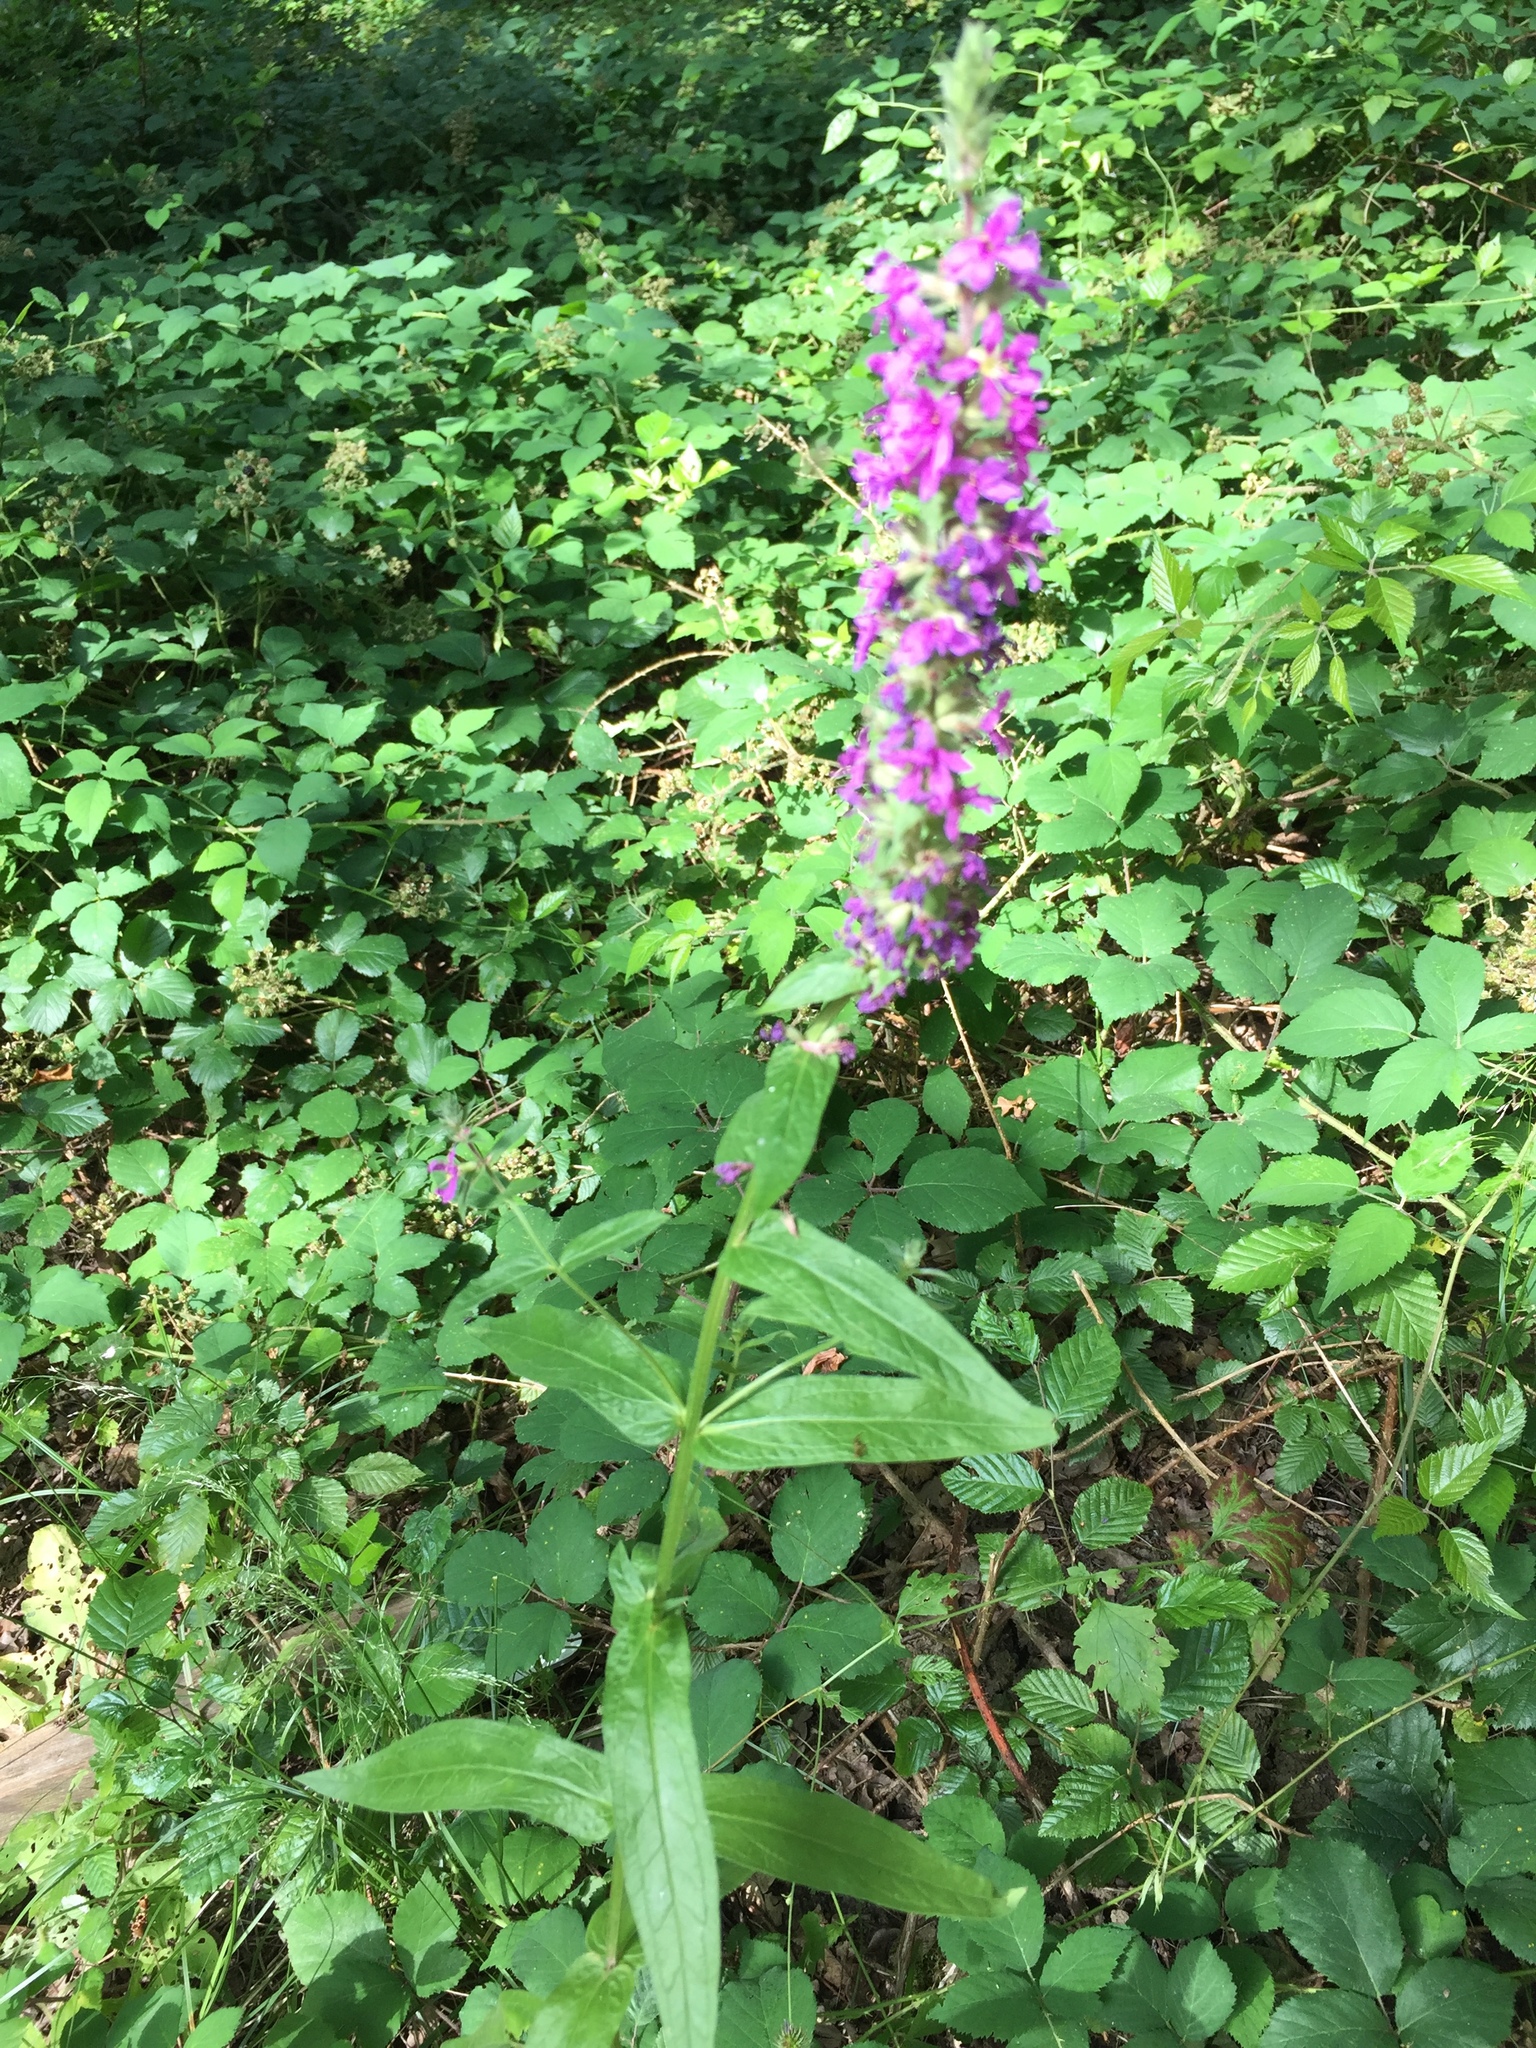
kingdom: Plantae
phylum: Tracheophyta
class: Magnoliopsida
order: Myrtales
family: Lythraceae
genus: Lythrum
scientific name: Lythrum salicaria
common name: Purple loosestrife
